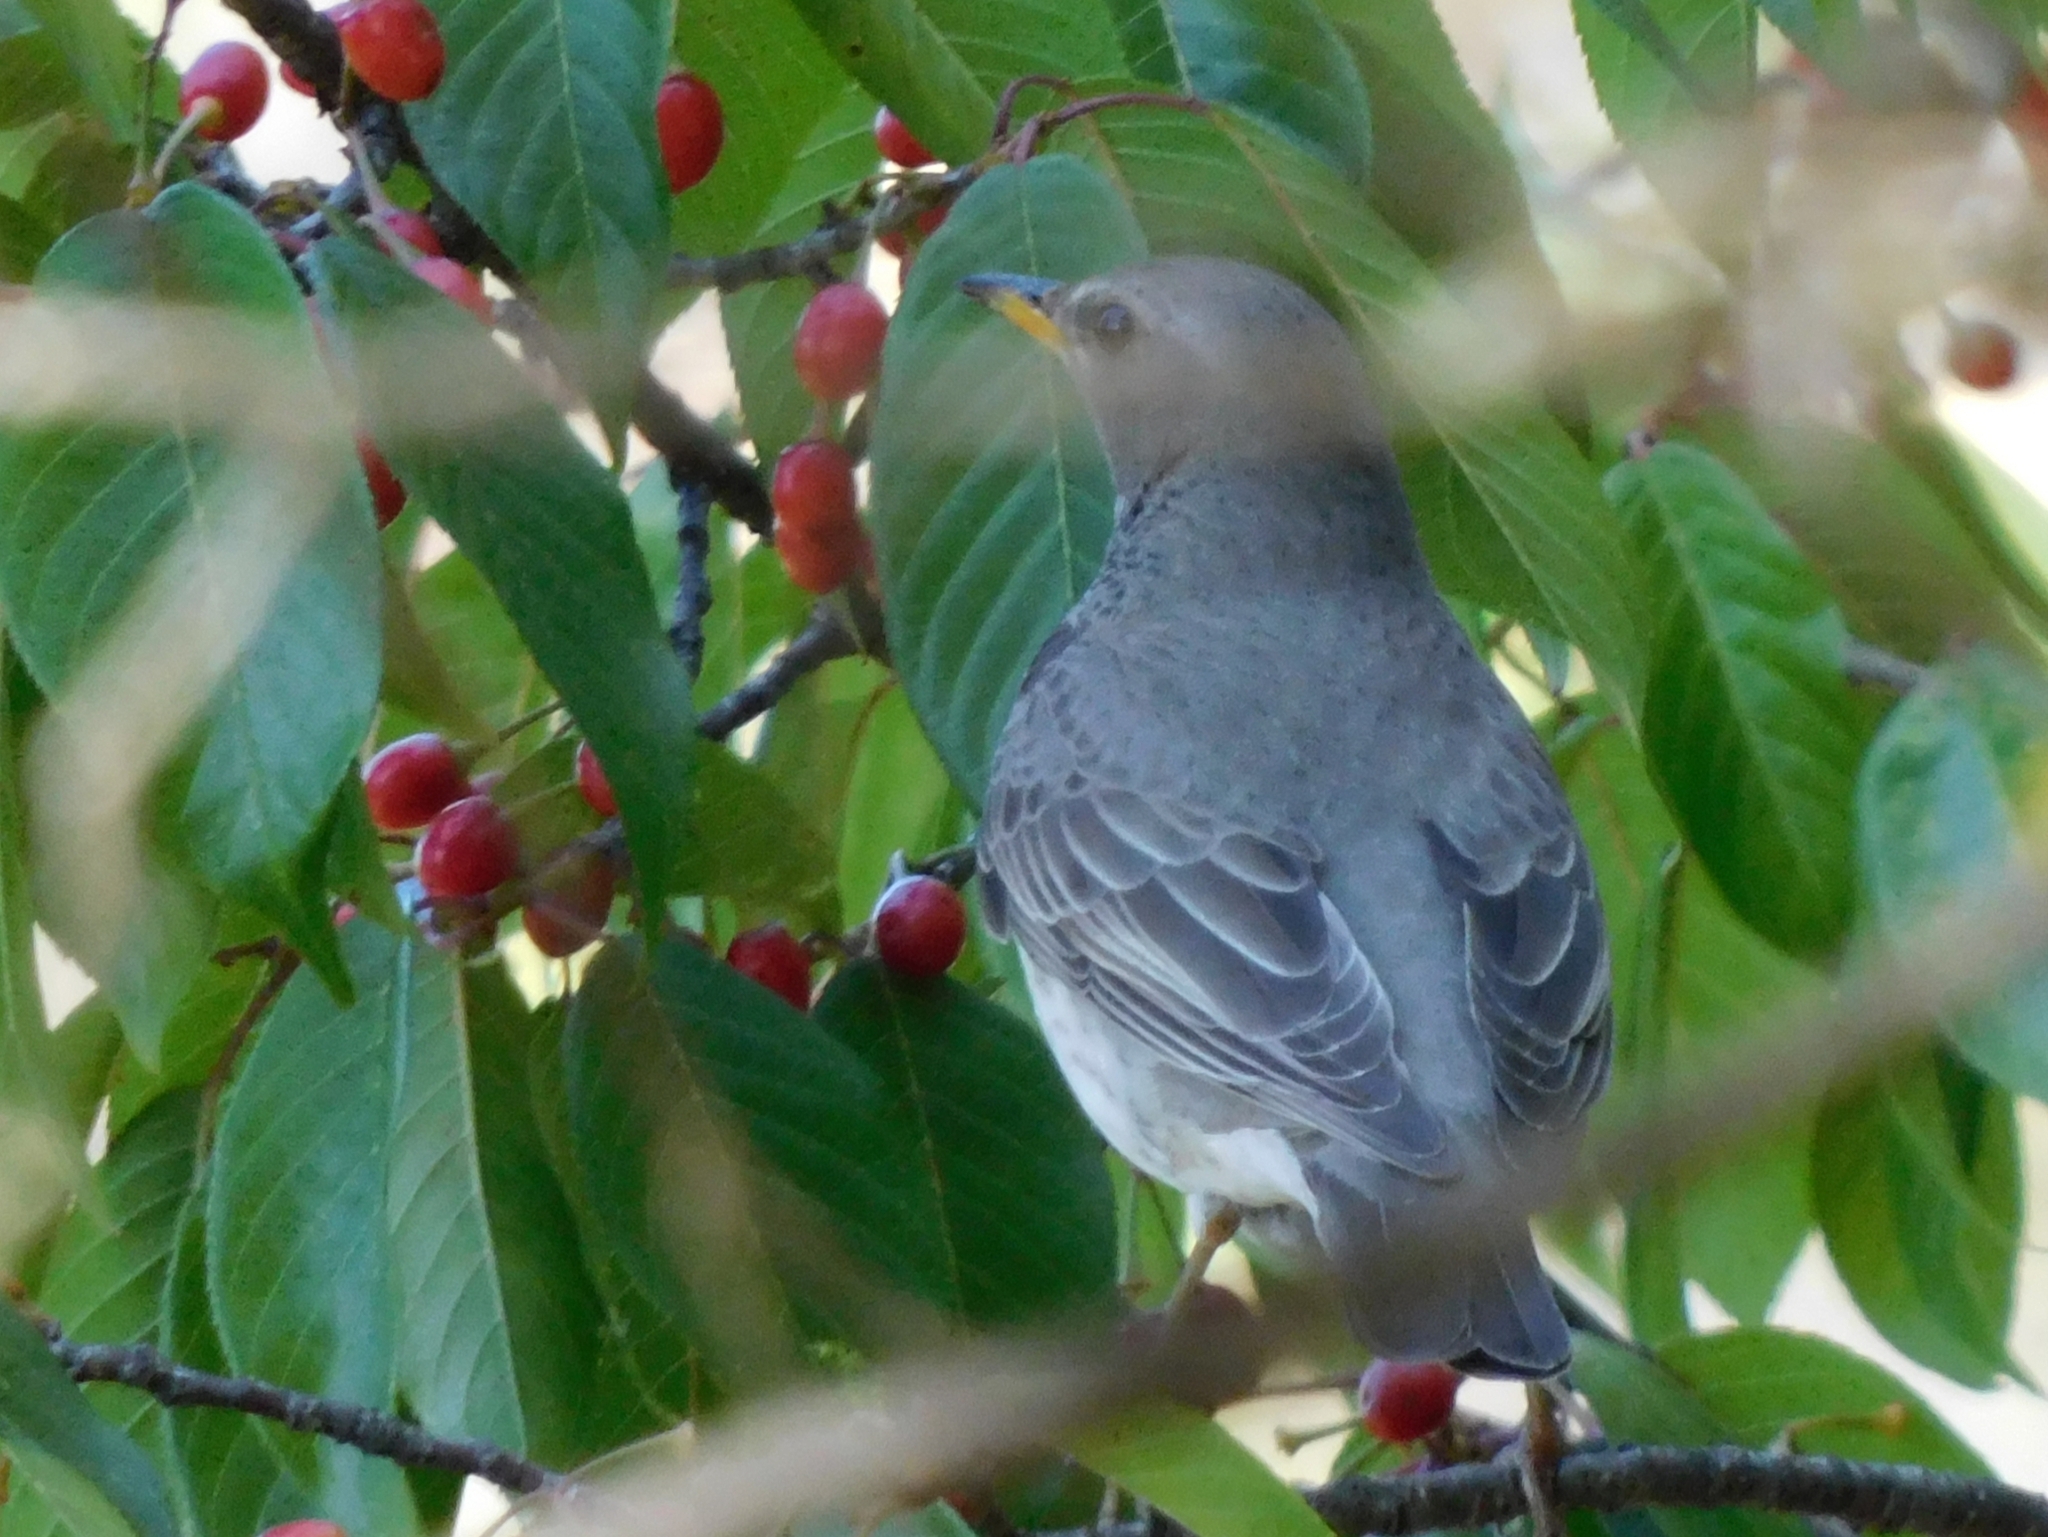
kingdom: Animalia
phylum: Chordata
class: Aves
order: Passeriformes
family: Turdidae
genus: Turdus
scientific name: Turdus atrogularis
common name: Black-throated thrush
